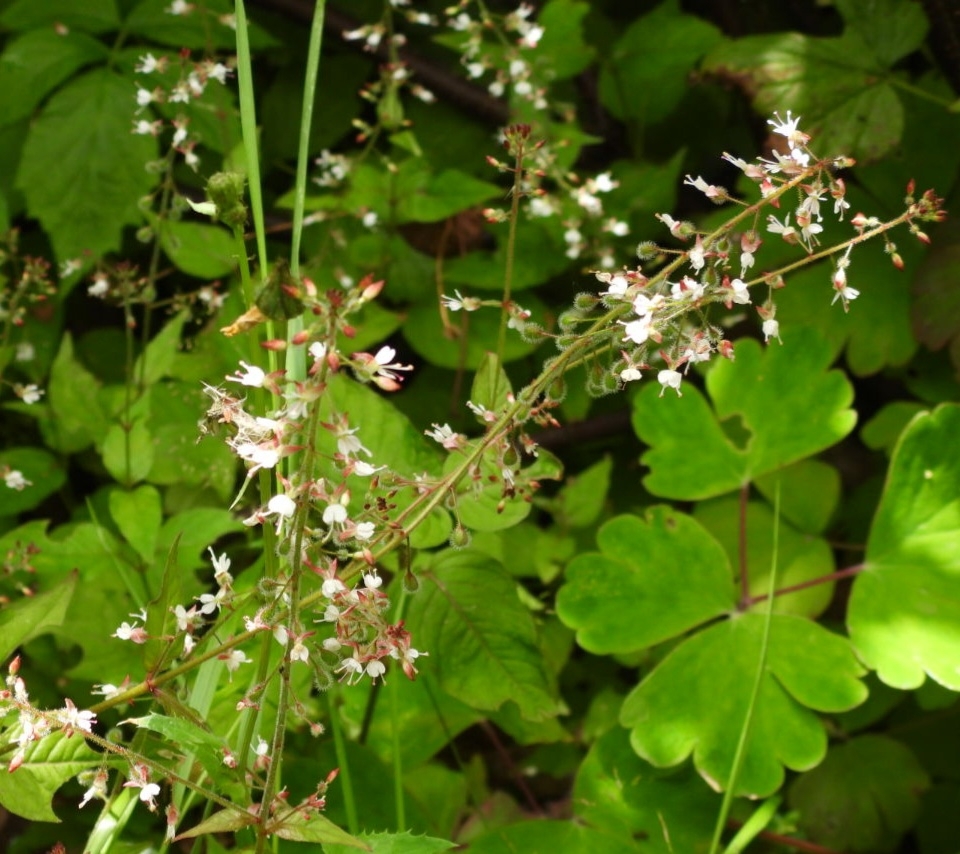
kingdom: Plantae
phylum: Tracheophyta
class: Magnoliopsida
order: Myrtales
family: Onagraceae
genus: Circaea
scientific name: Circaea lutetiana
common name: Enchanter's-nightshade
